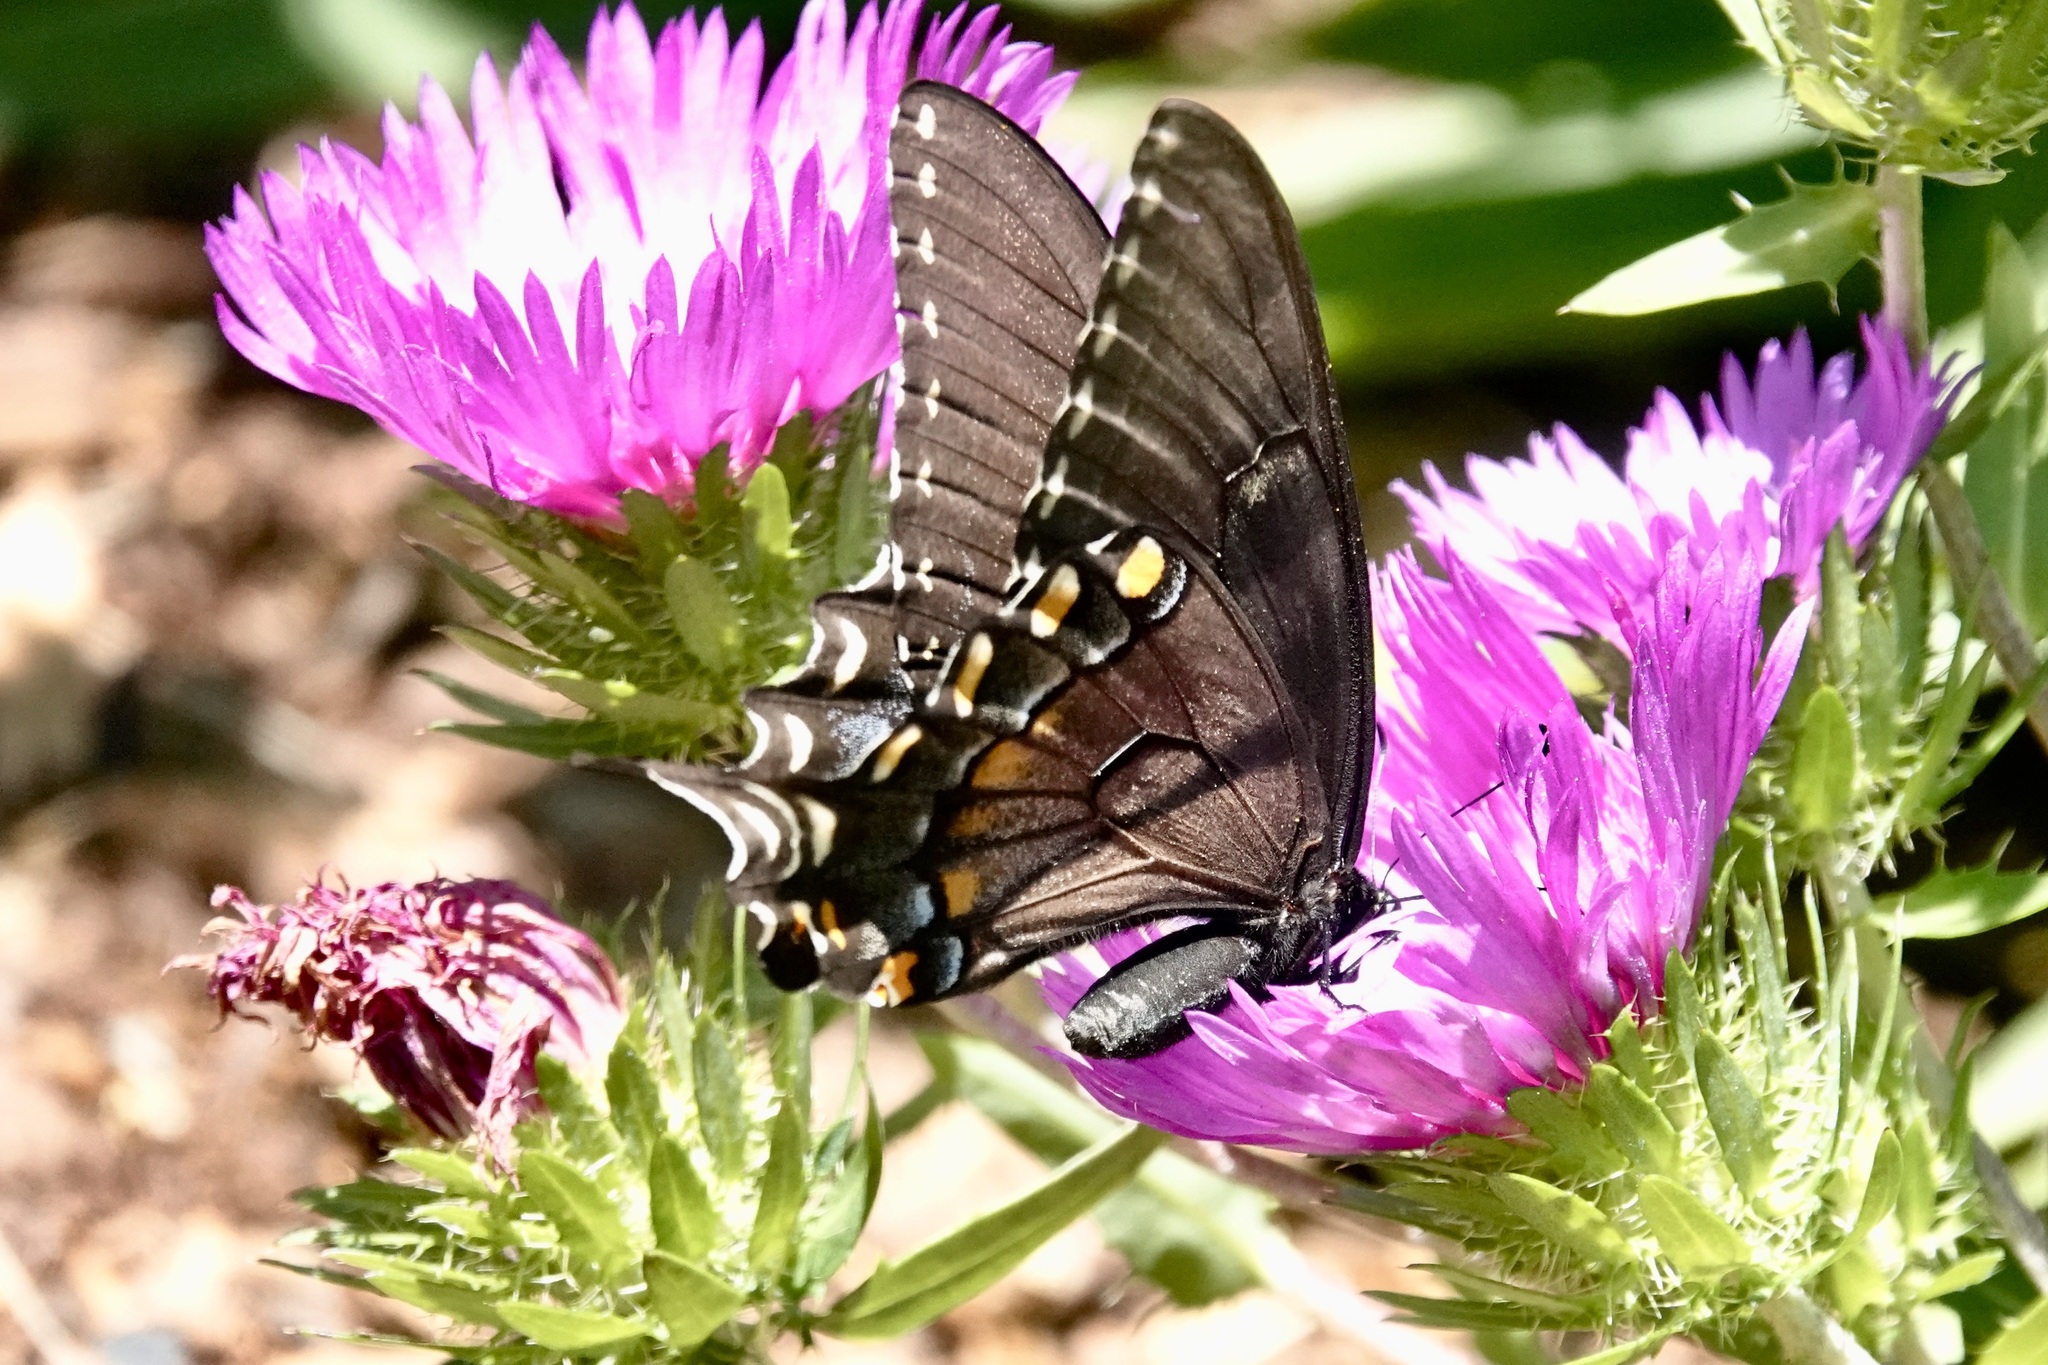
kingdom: Animalia
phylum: Arthropoda
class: Insecta
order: Lepidoptera
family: Papilionidae
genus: Papilio
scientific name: Papilio glaucus
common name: Tiger swallowtail
